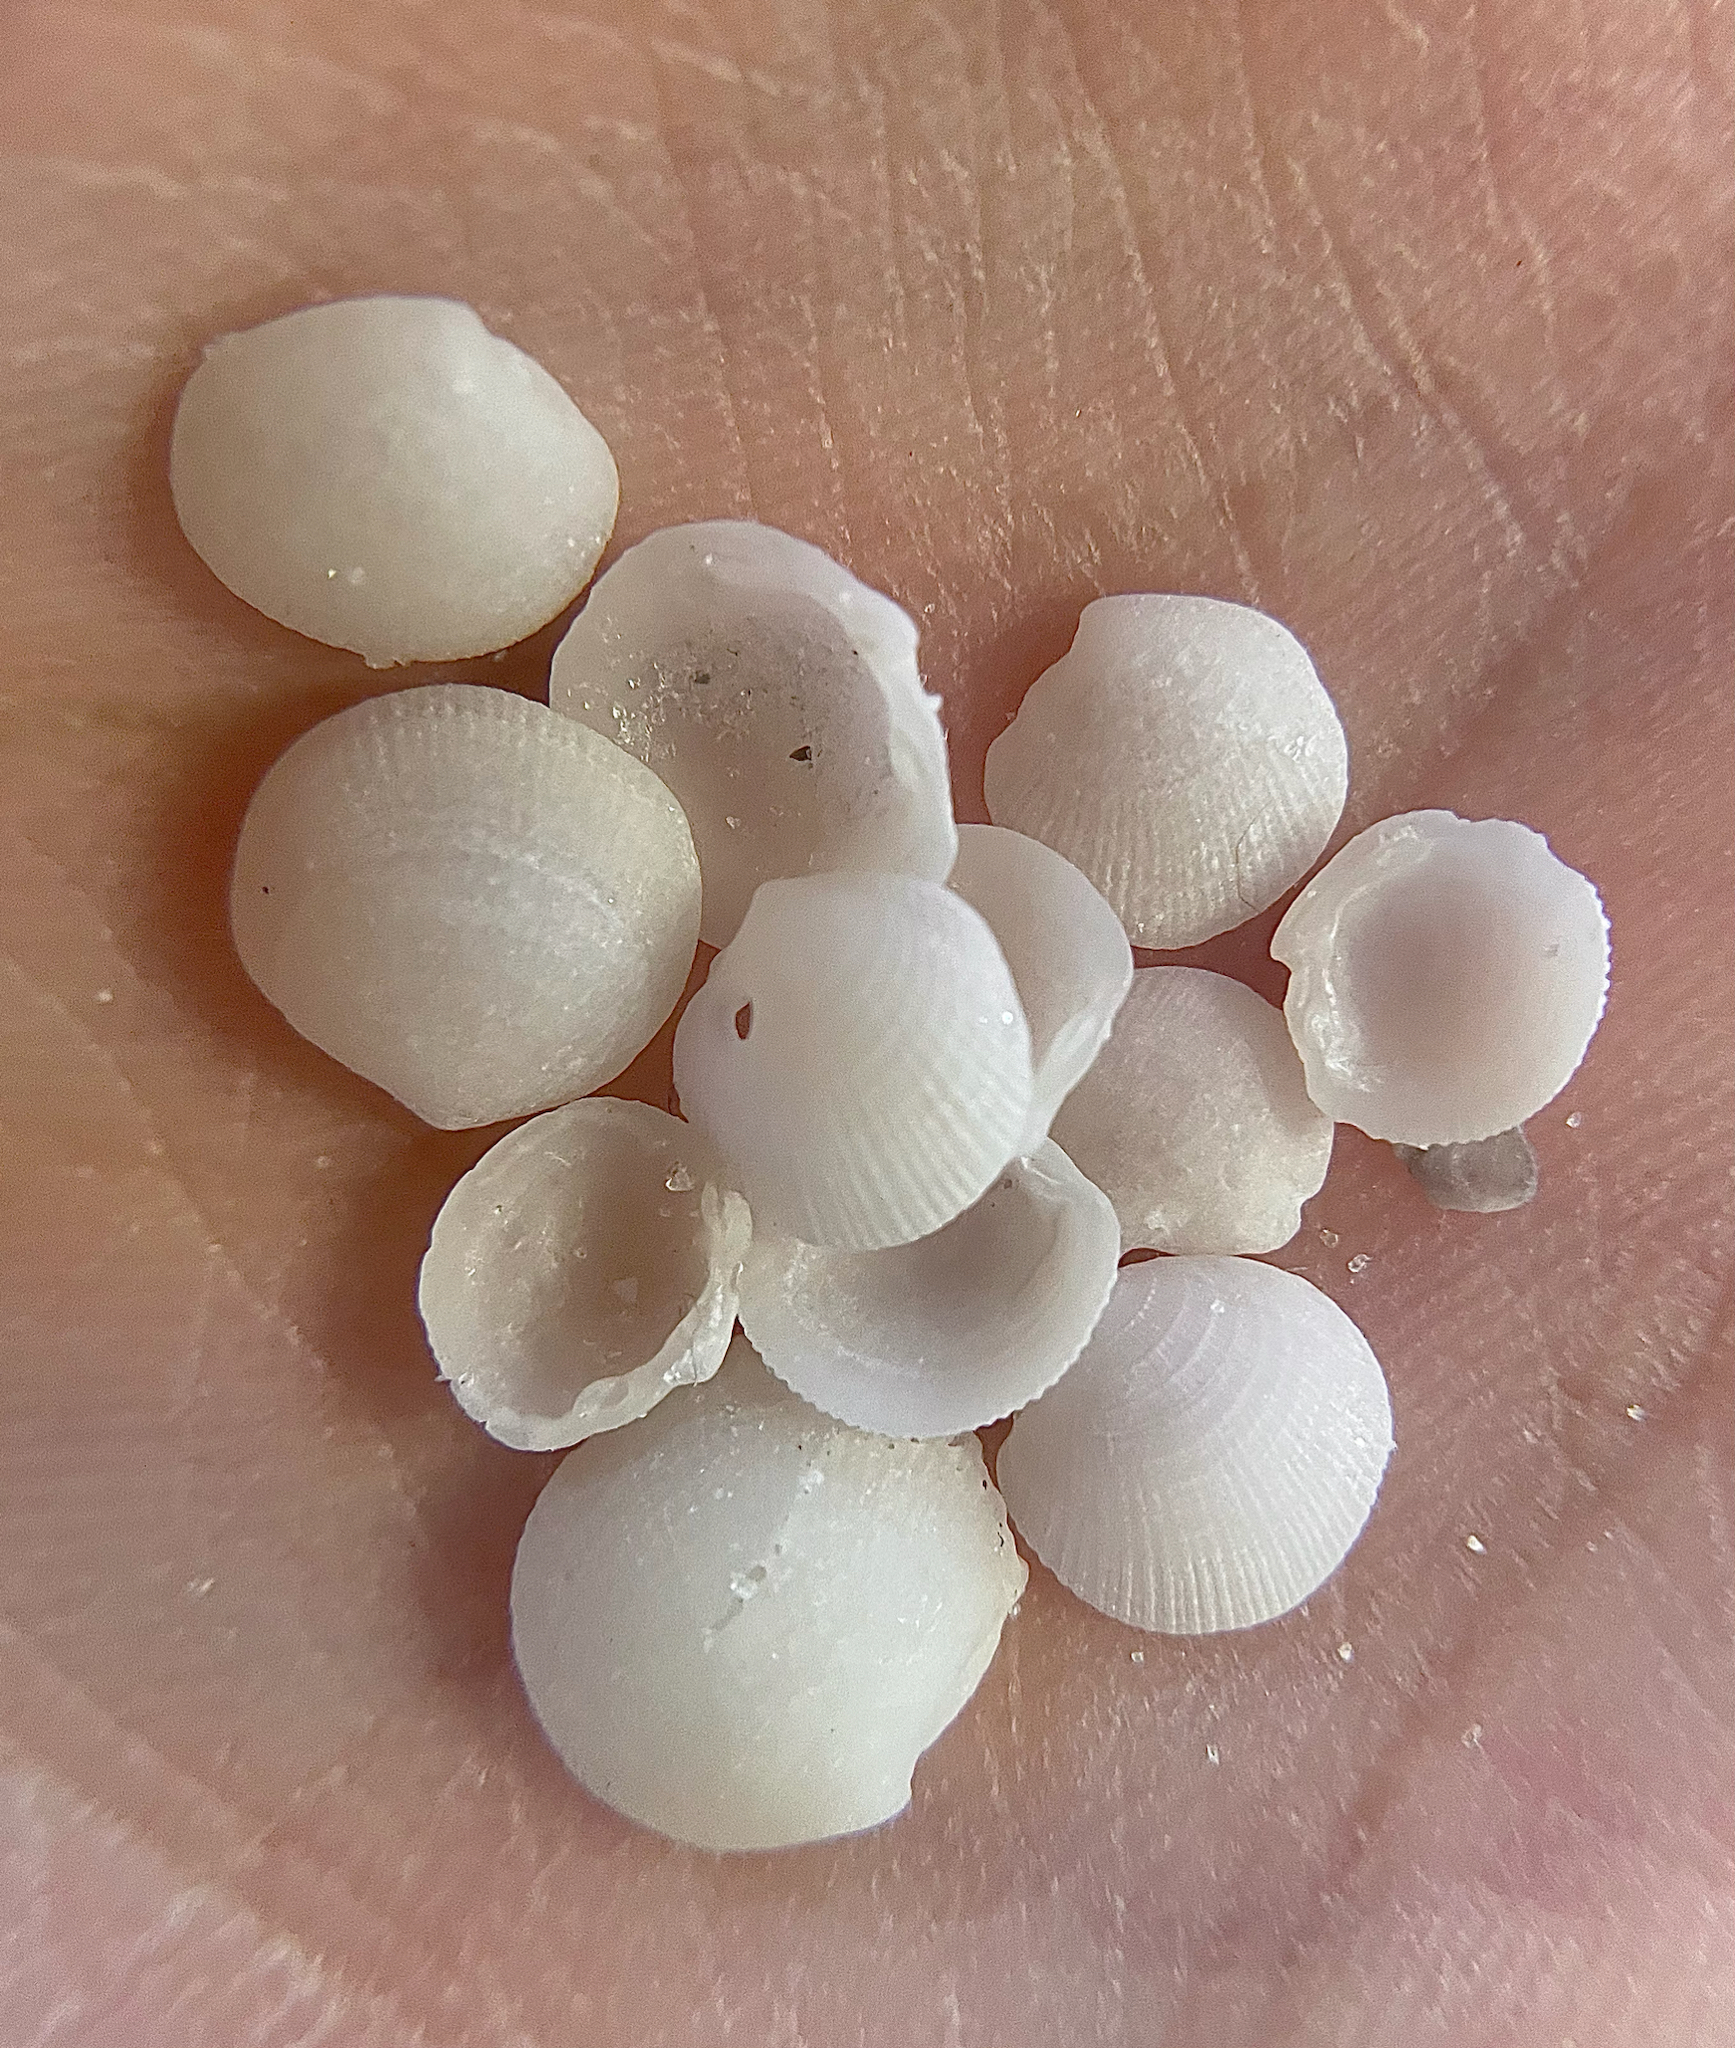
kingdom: Animalia
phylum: Mollusca
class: Bivalvia
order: Lucinida
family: Lucinidae
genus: Lucinisca
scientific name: Lucinisca nassula
